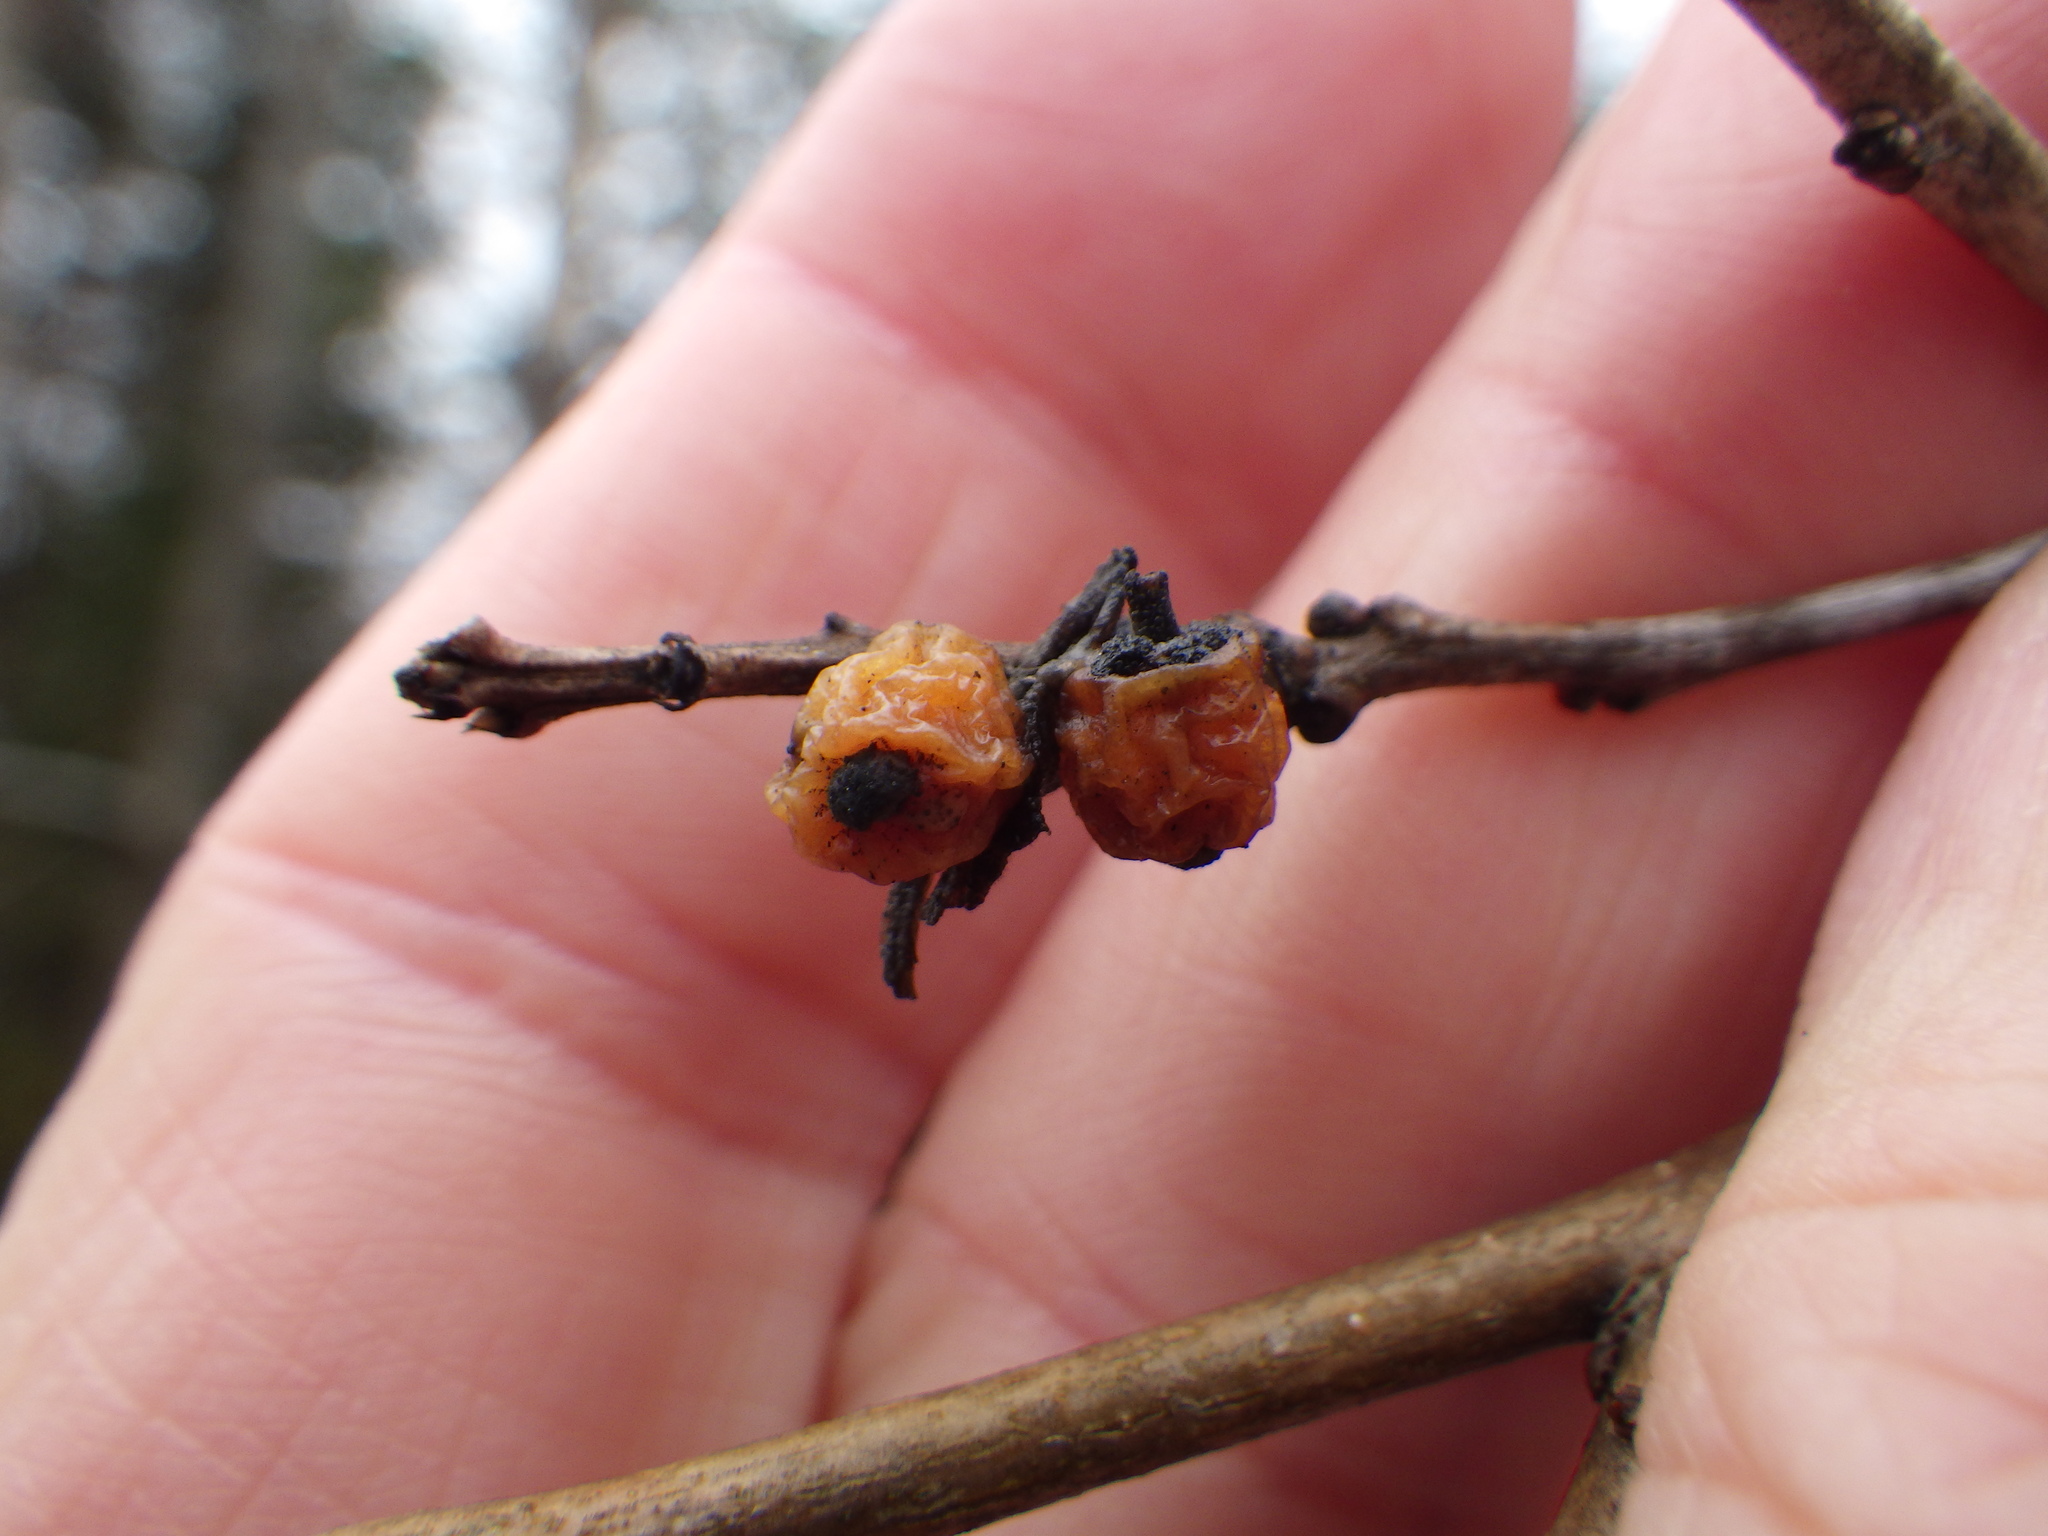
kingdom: Plantae
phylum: Tracheophyta
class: Magnoliopsida
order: Aquifoliales
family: Aquifoliaceae
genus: Ilex
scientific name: Ilex verticillata
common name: Virginia winterberry
